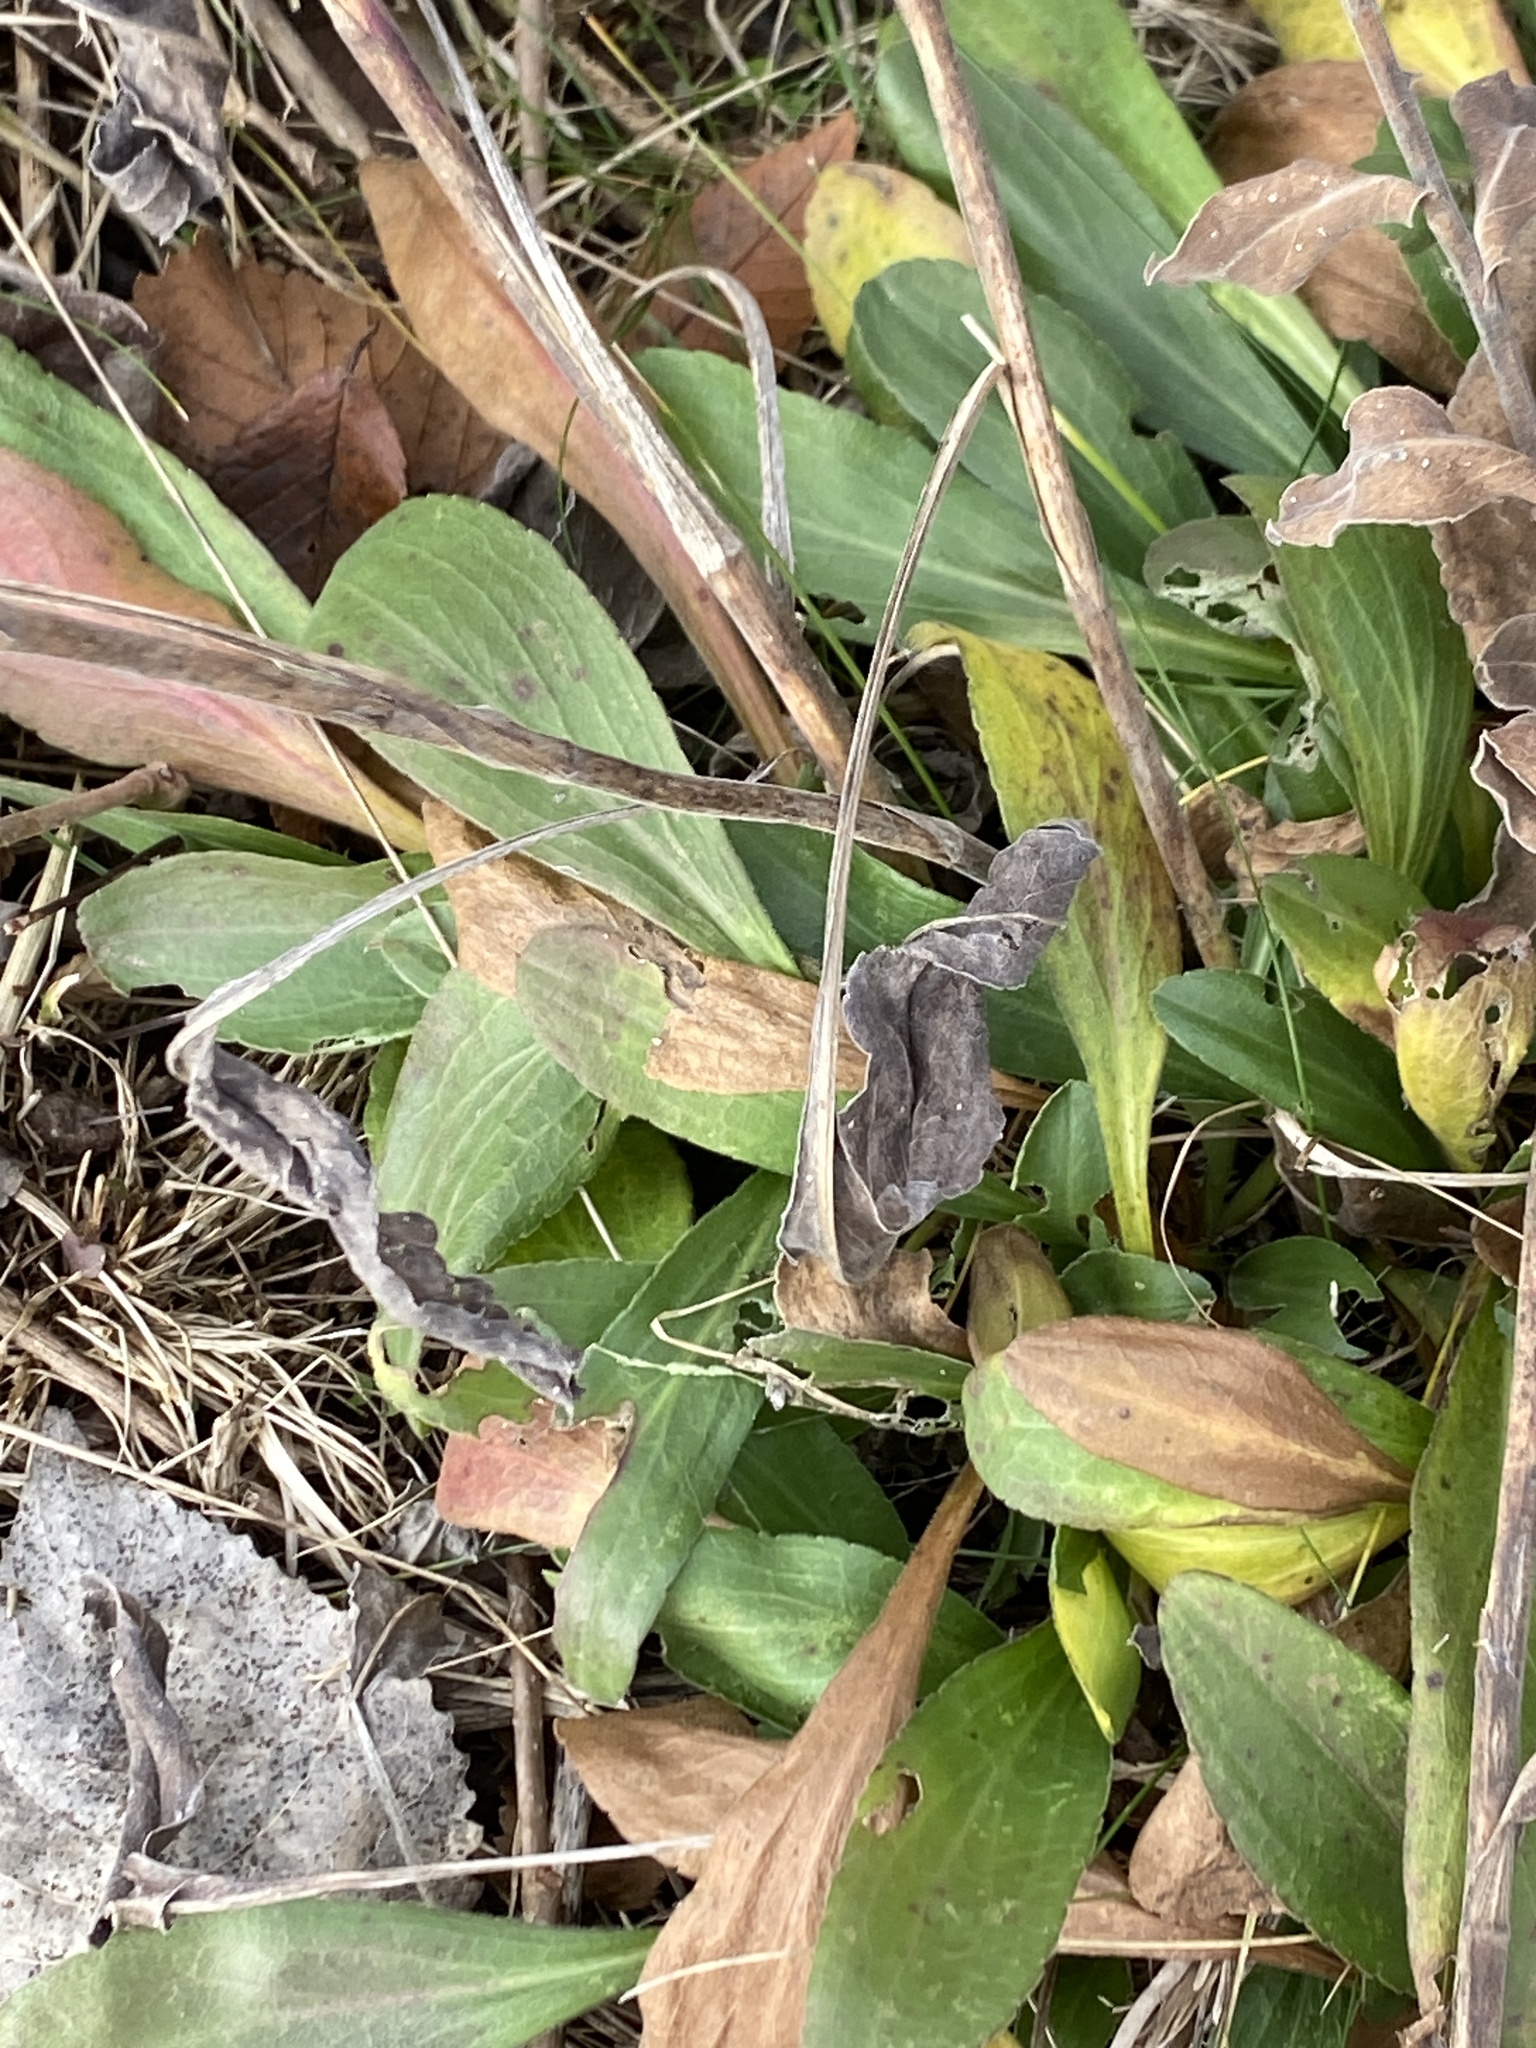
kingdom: Plantae
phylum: Tracheophyta
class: Magnoliopsida
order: Asterales
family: Asteraceae
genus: Solidago
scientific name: Solidago rigida
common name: Rigid goldenrod
